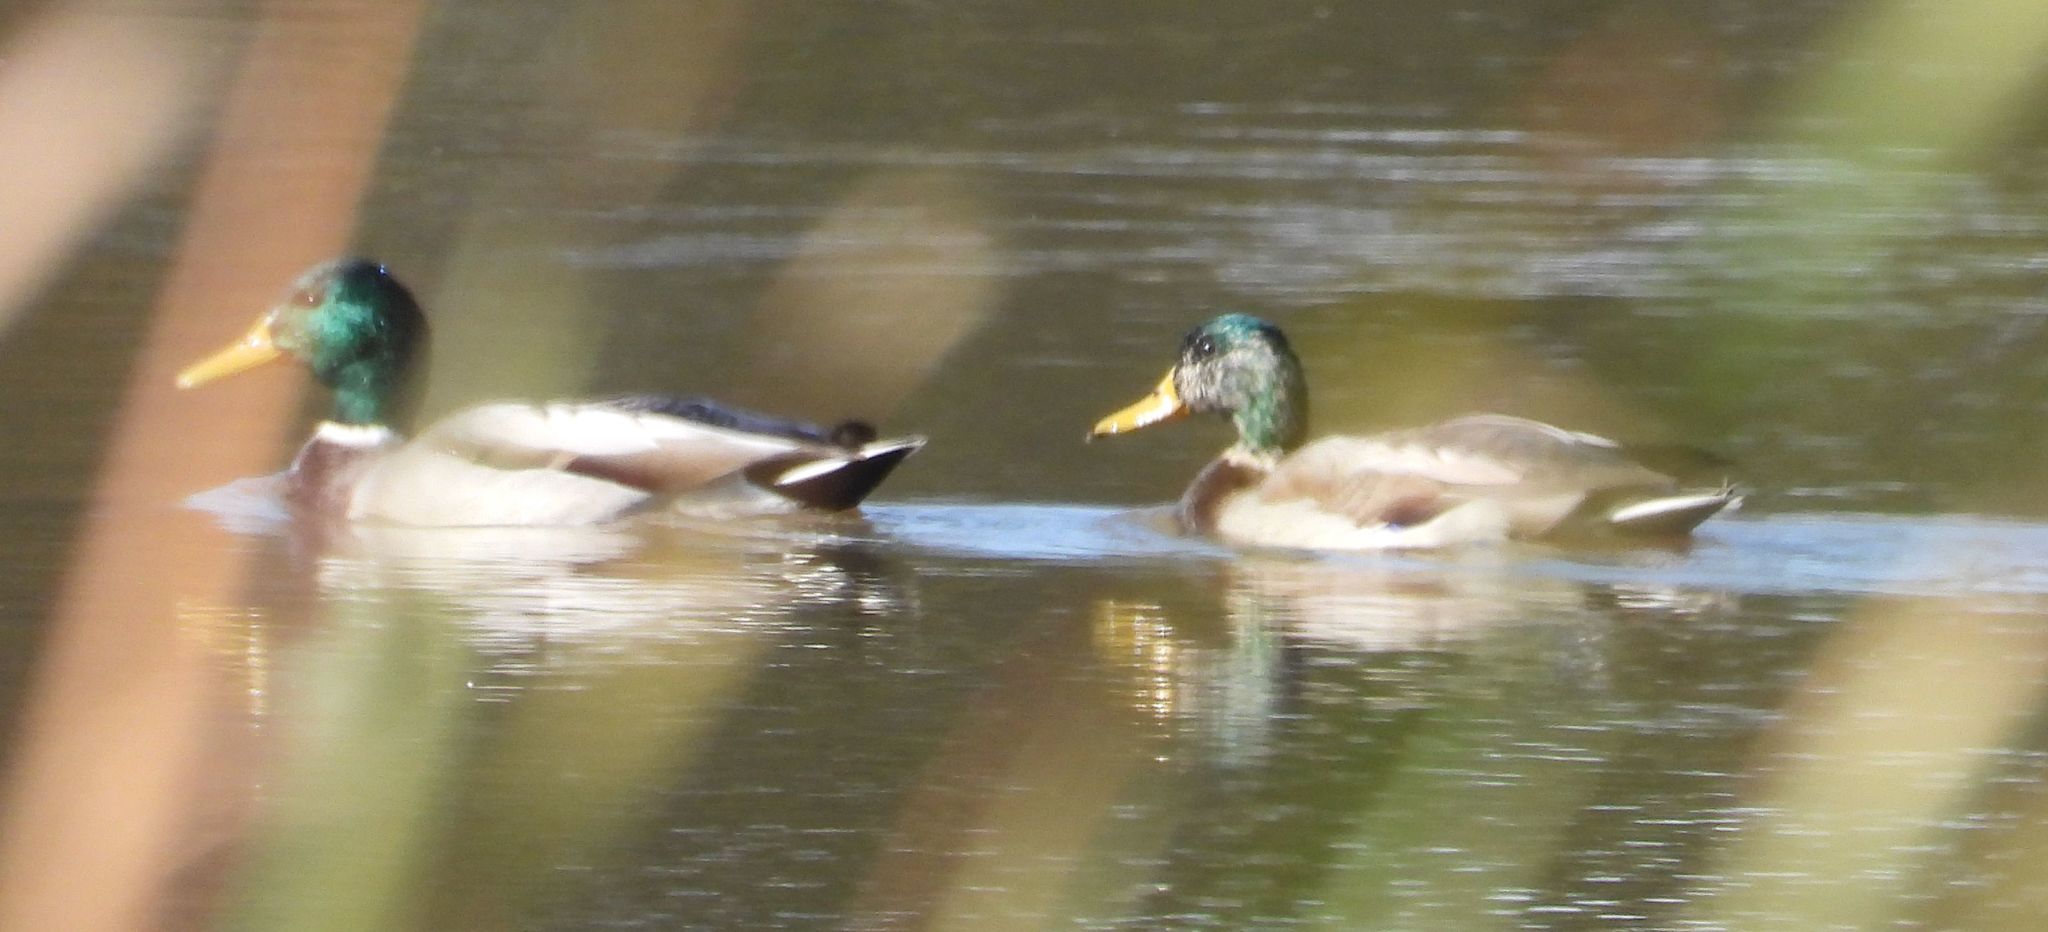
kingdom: Animalia
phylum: Chordata
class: Aves
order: Anseriformes
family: Anatidae
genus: Anas
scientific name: Anas platyrhynchos
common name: Mallard
